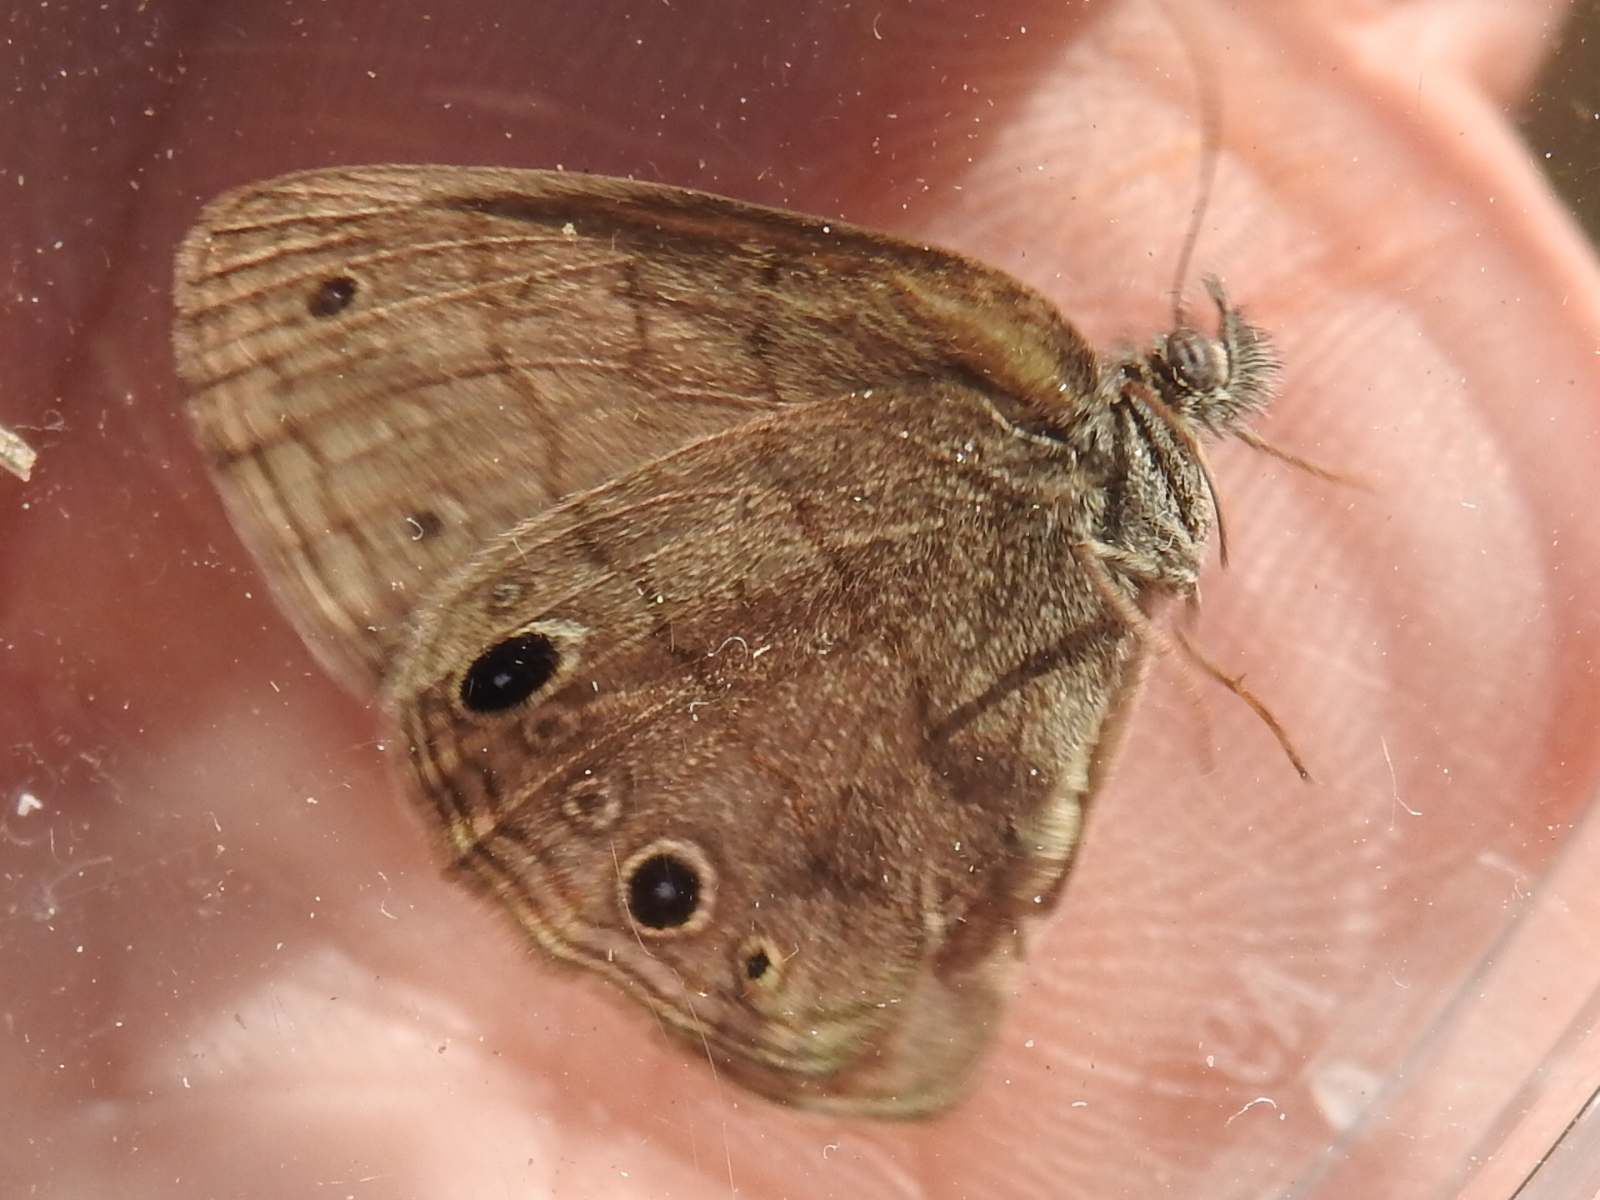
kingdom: Animalia
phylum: Arthropoda
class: Insecta
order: Lepidoptera
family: Nymphalidae
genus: Hermeuptychia
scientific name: Hermeuptychia hermes
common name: Hermes satyr
